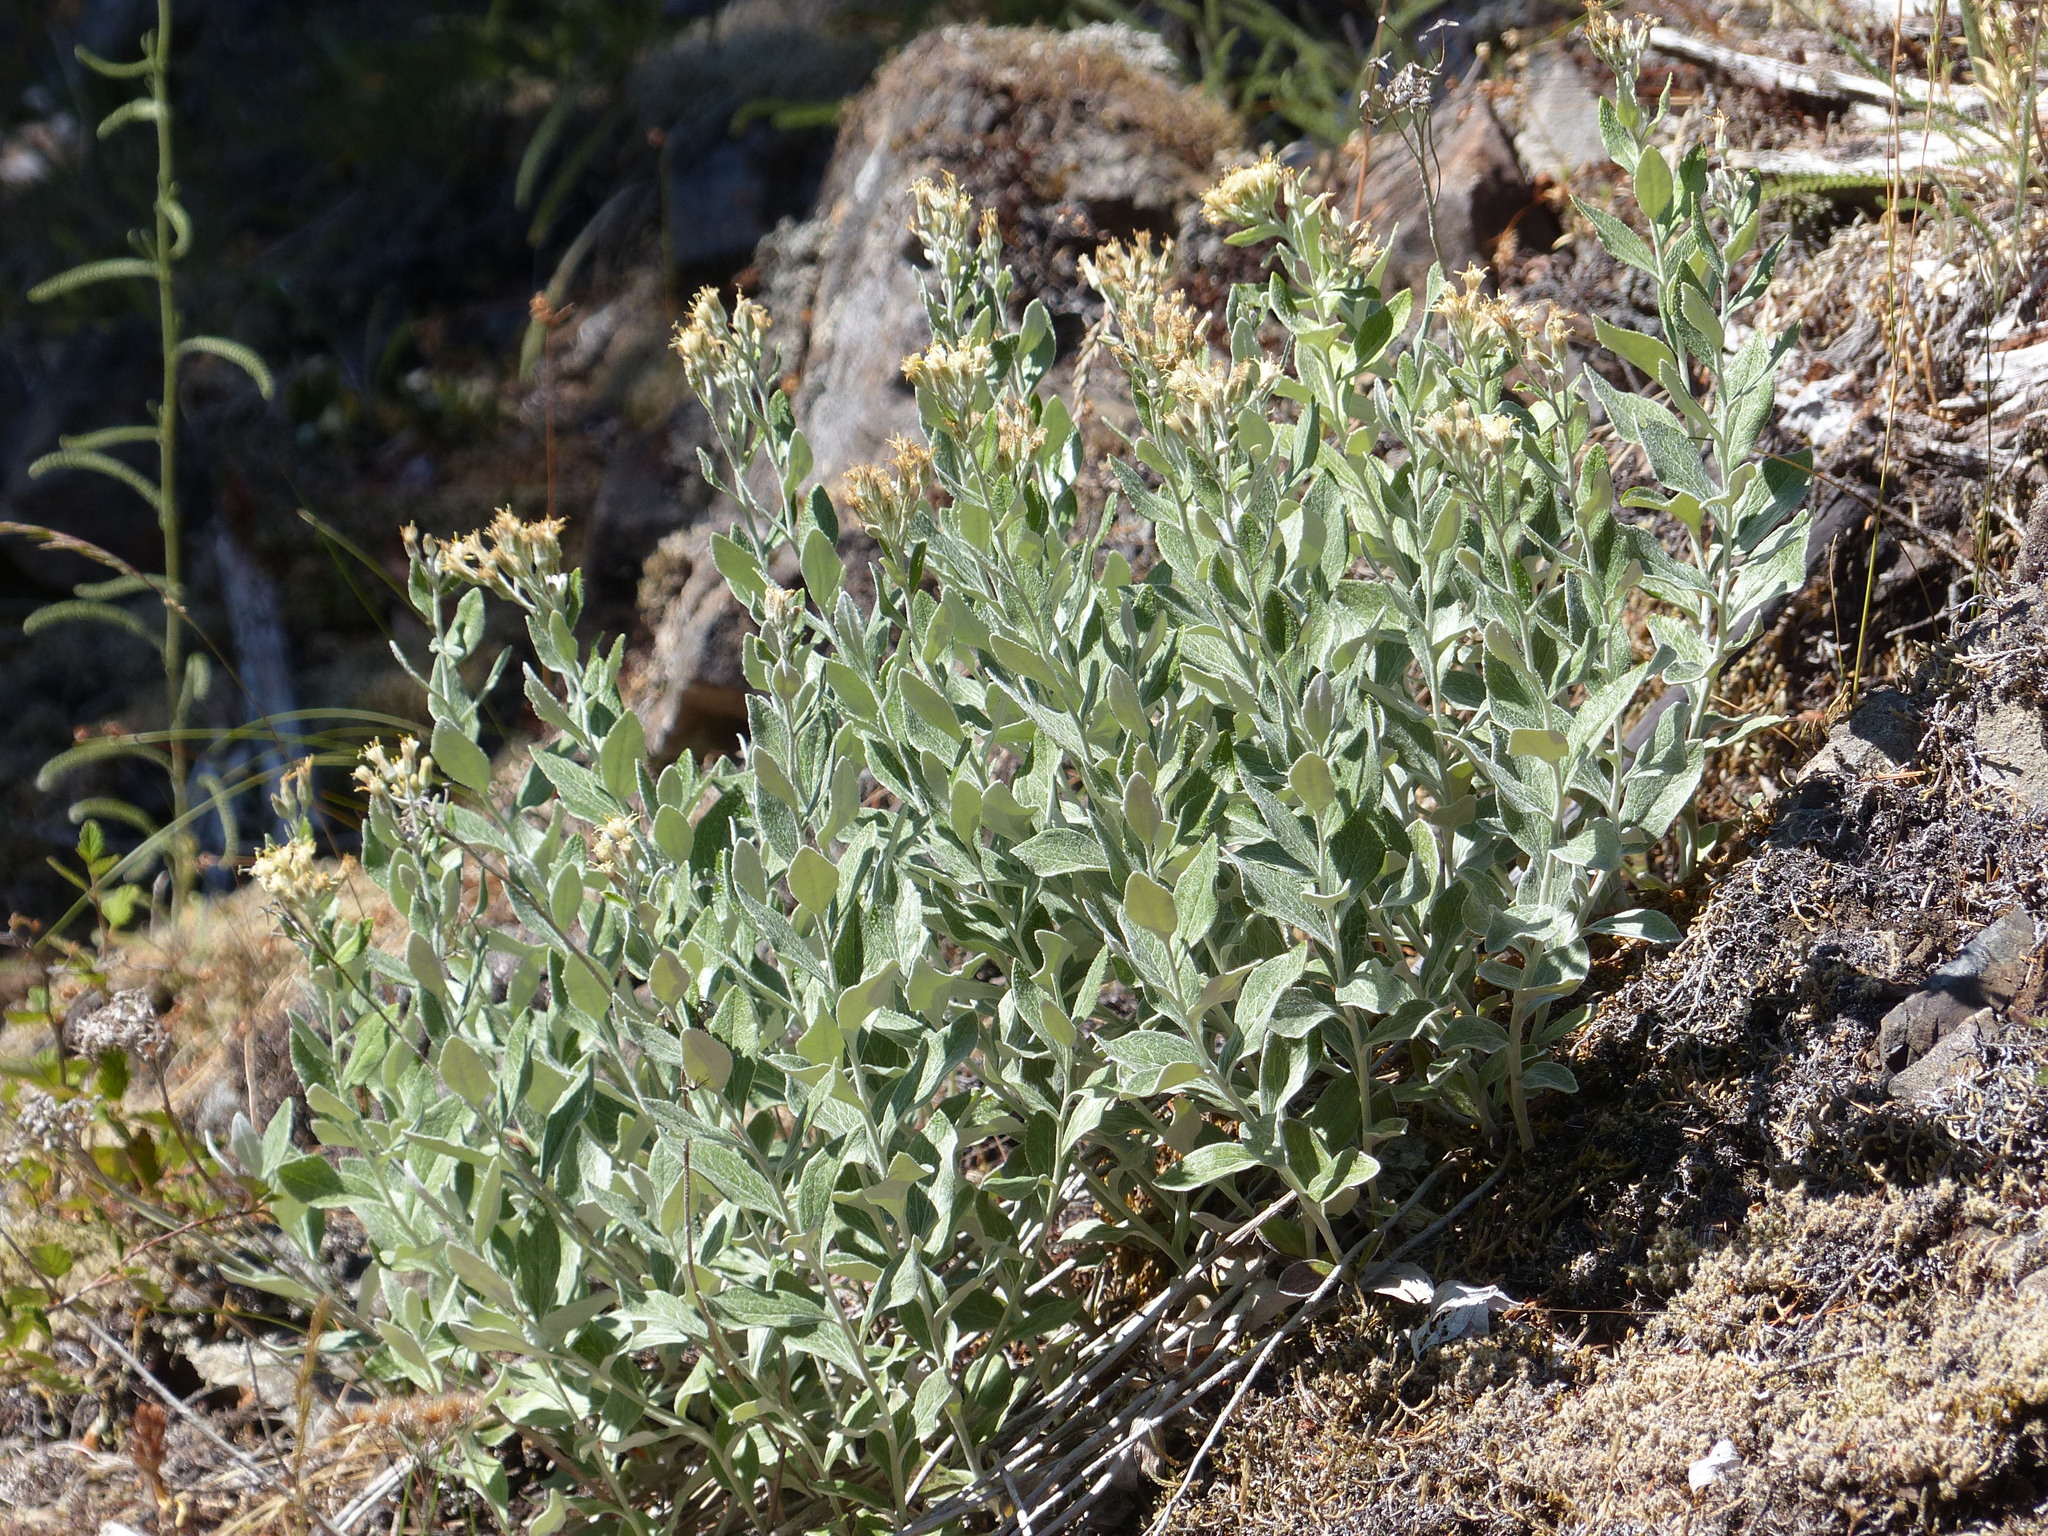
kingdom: Plantae
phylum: Tracheophyta
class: Magnoliopsida
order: Asterales
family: Asteraceae
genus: Luina
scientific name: Luina hypoleuca
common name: Little-leaved luina
